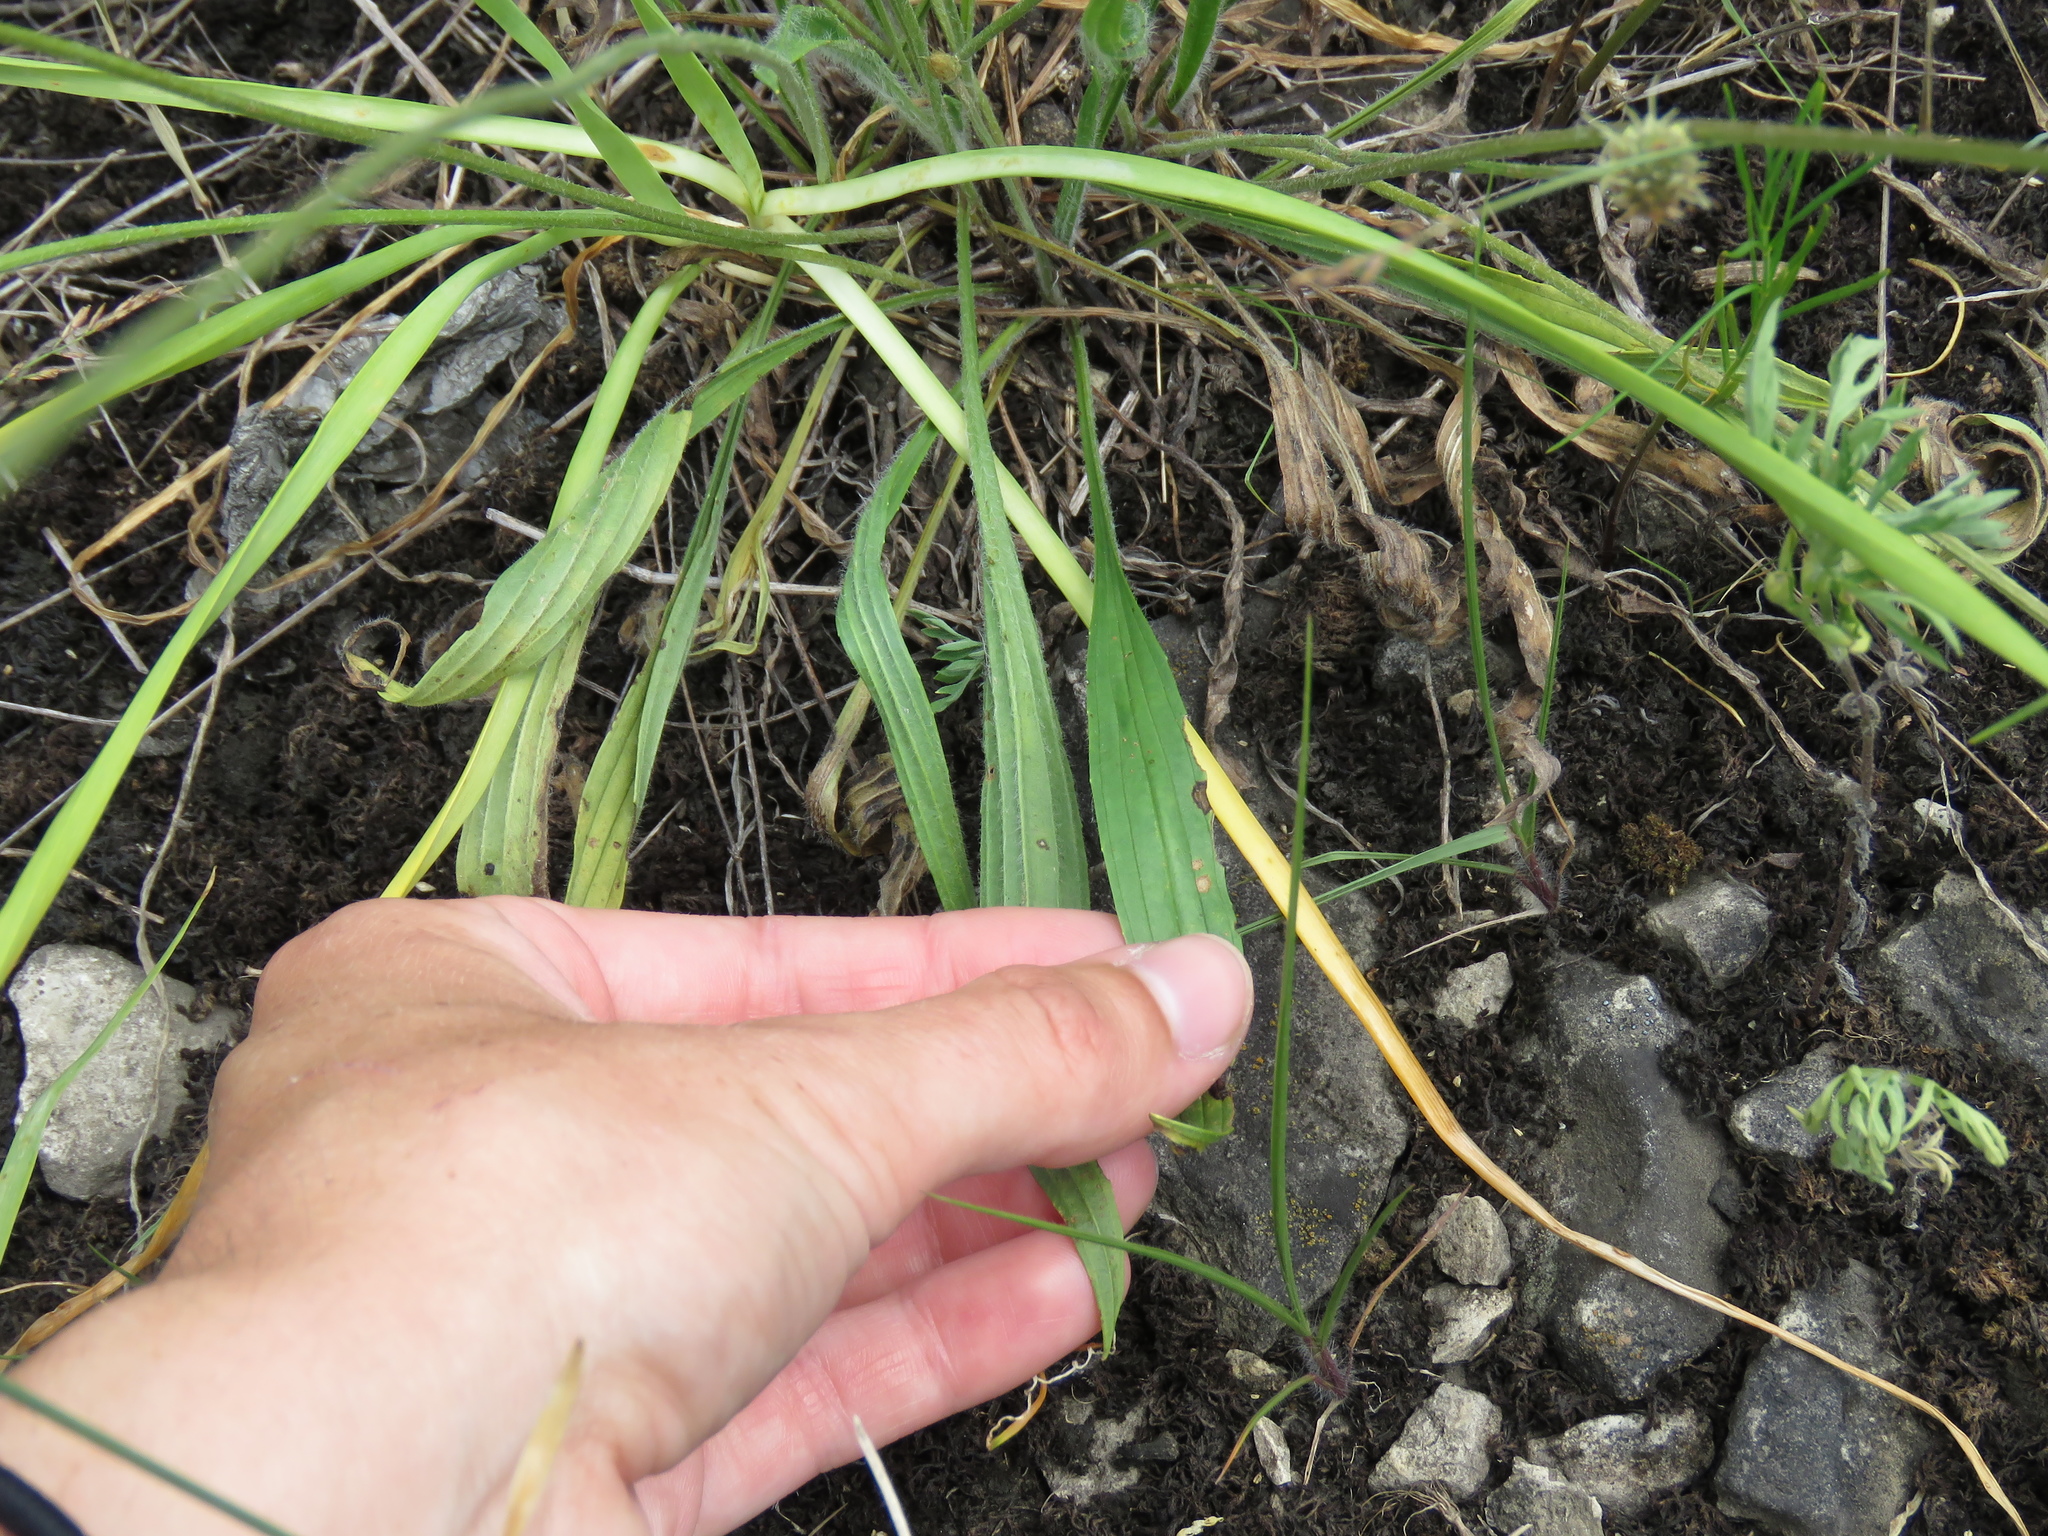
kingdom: Plantae
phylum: Tracheophyta
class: Magnoliopsida
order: Lamiales
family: Plantaginaceae
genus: Plantago
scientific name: Plantago lanceolata
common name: Ribwort plantain
